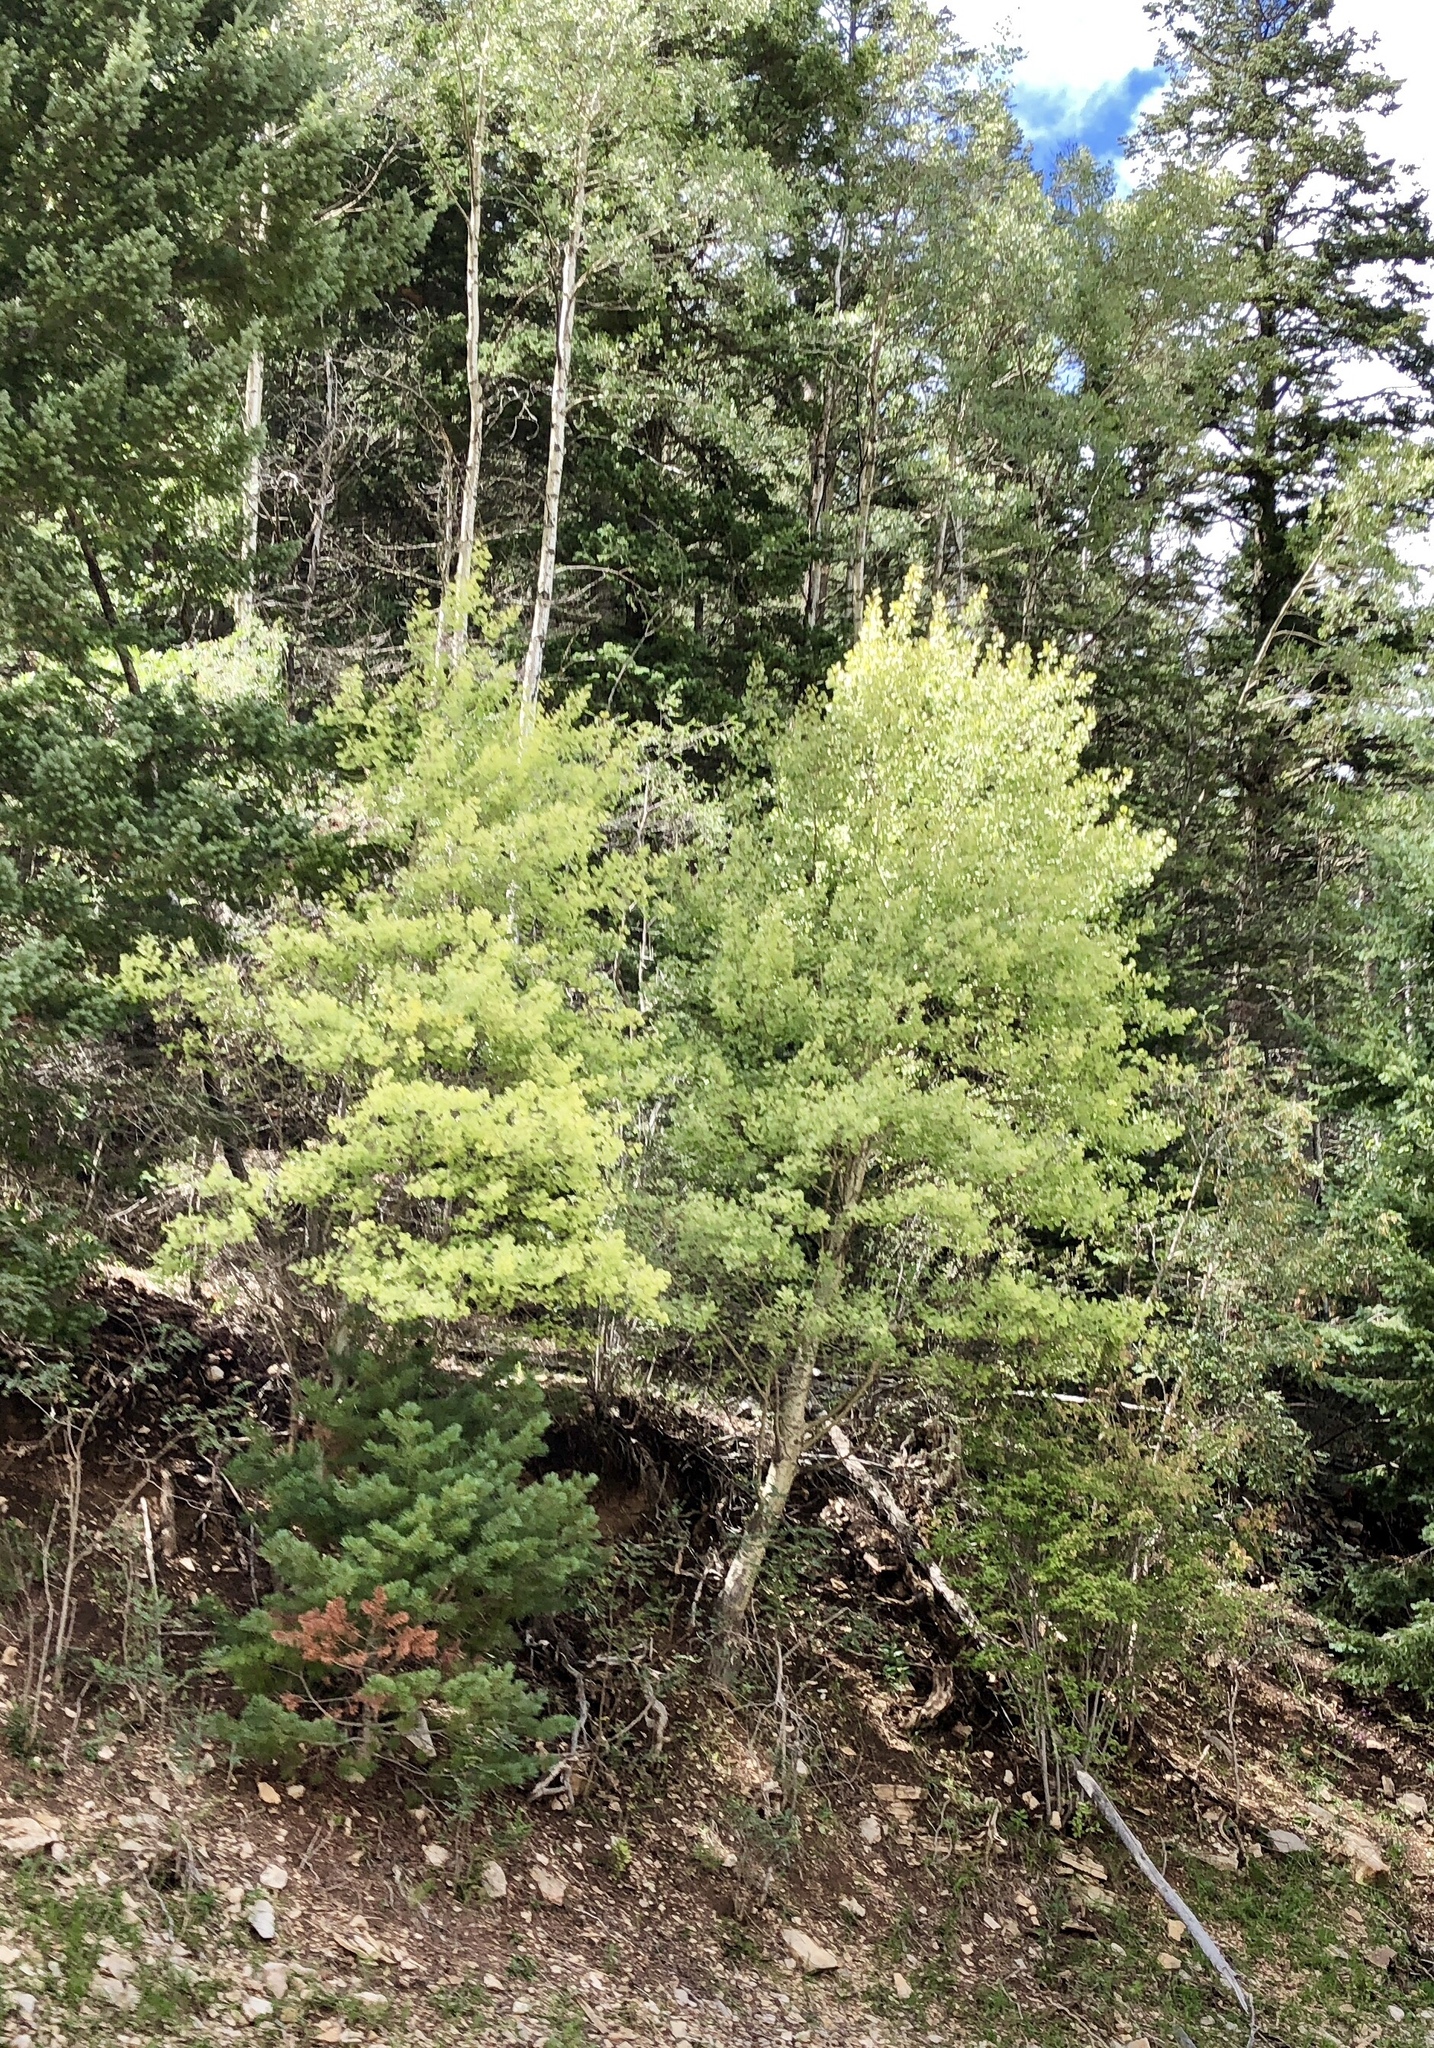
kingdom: Plantae
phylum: Tracheophyta
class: Magnoliopsida
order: Malpighiales
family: Salicaceae
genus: Populus
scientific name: Populus tremuloides
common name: Quaking aspen
